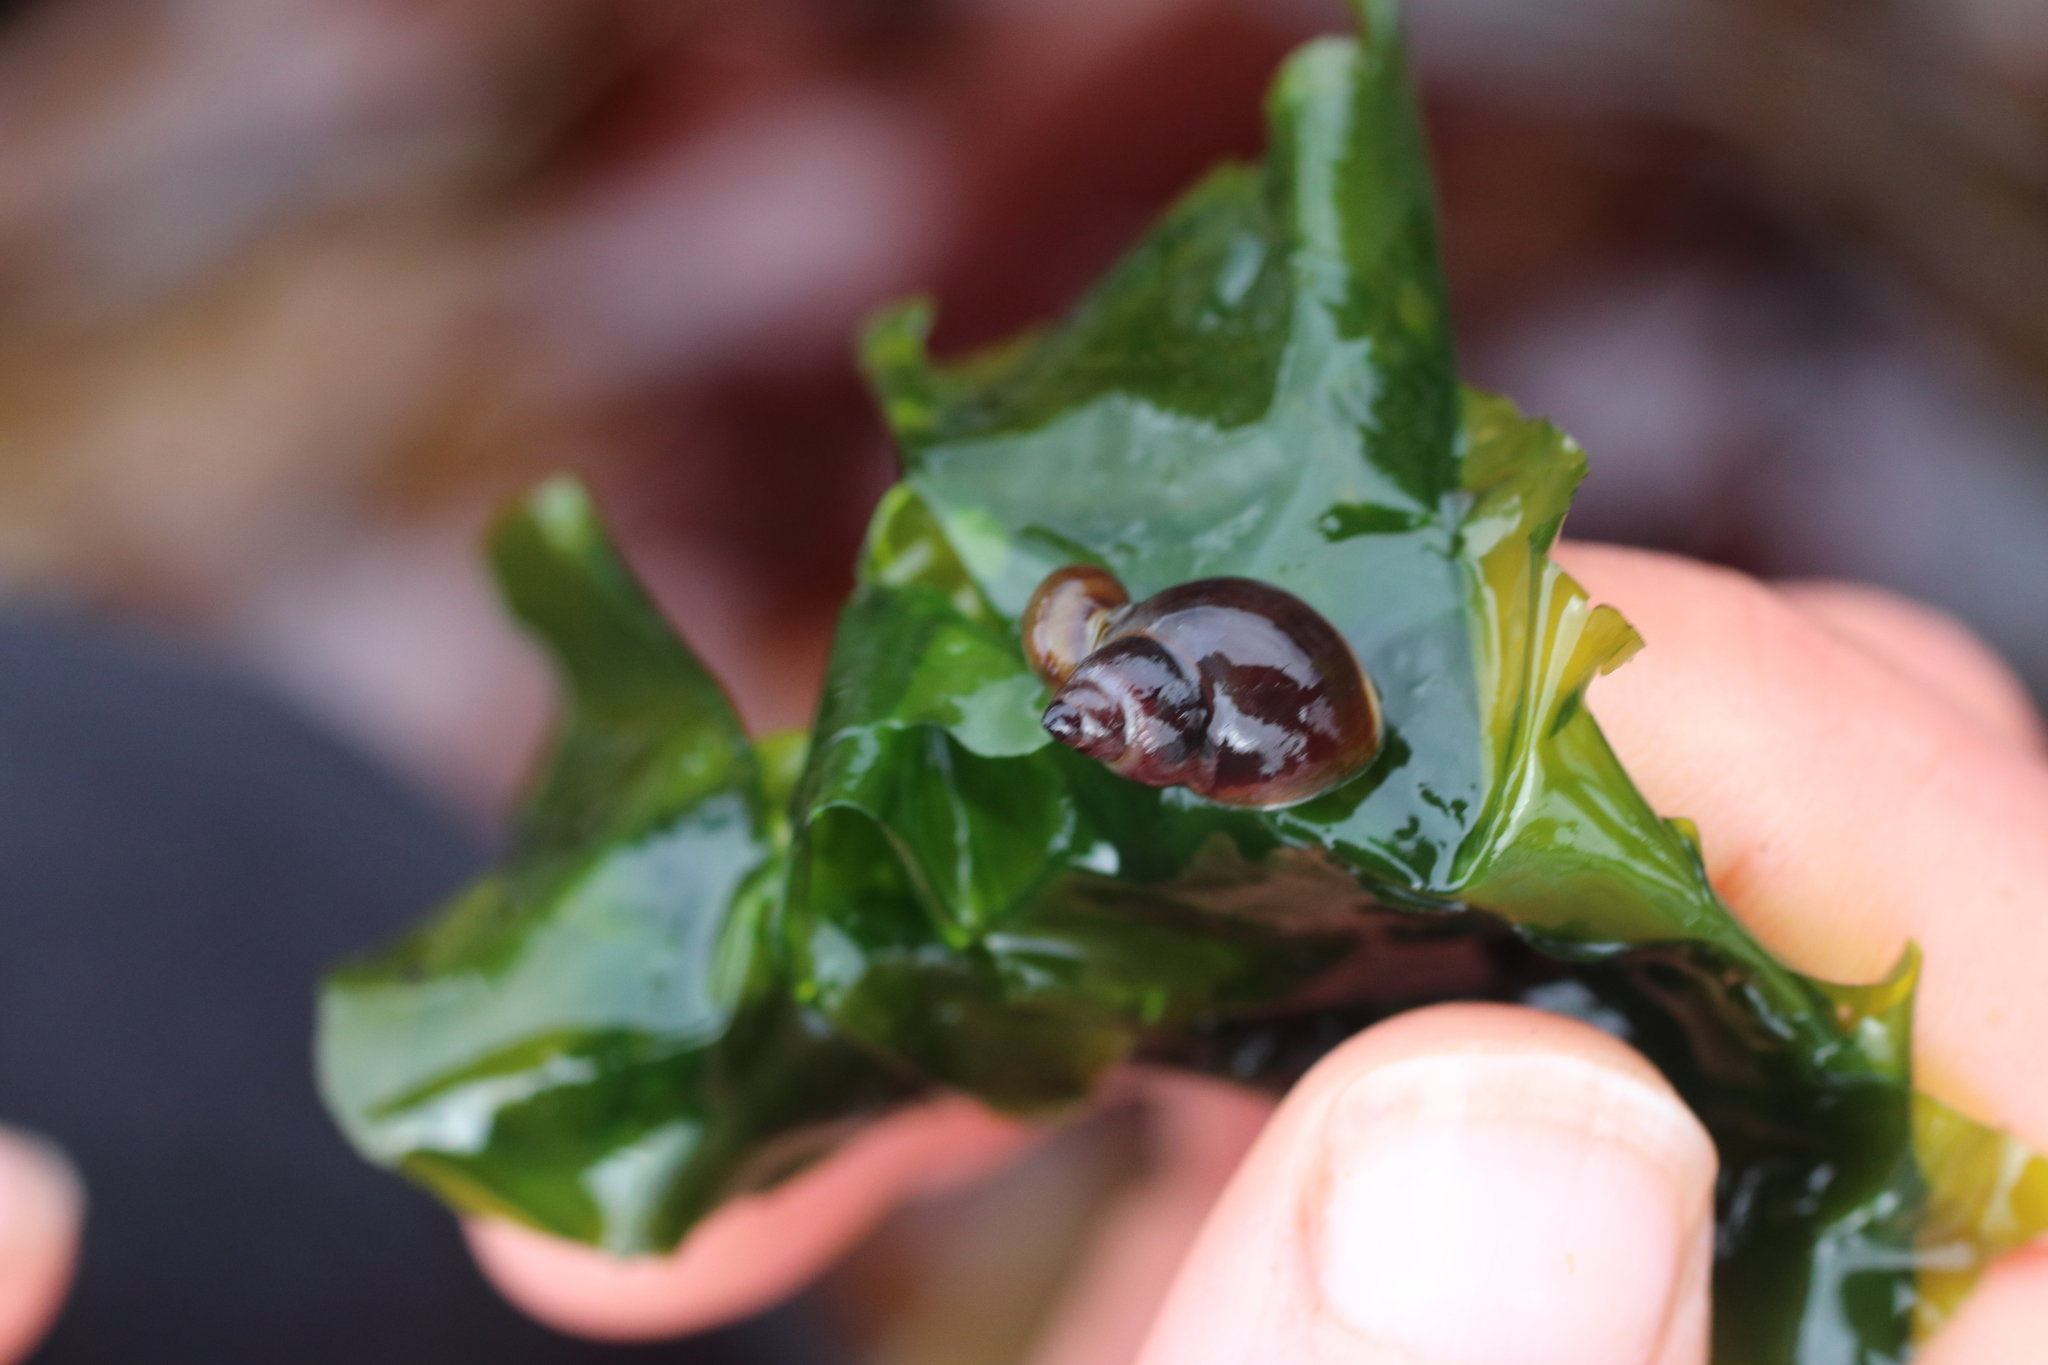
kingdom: Animalia
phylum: Mollusca
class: Gastropoda
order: Littorinimorpha
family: Littorinidae
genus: Lacuna
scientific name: Lacuna vincta
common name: Banded chink shell
